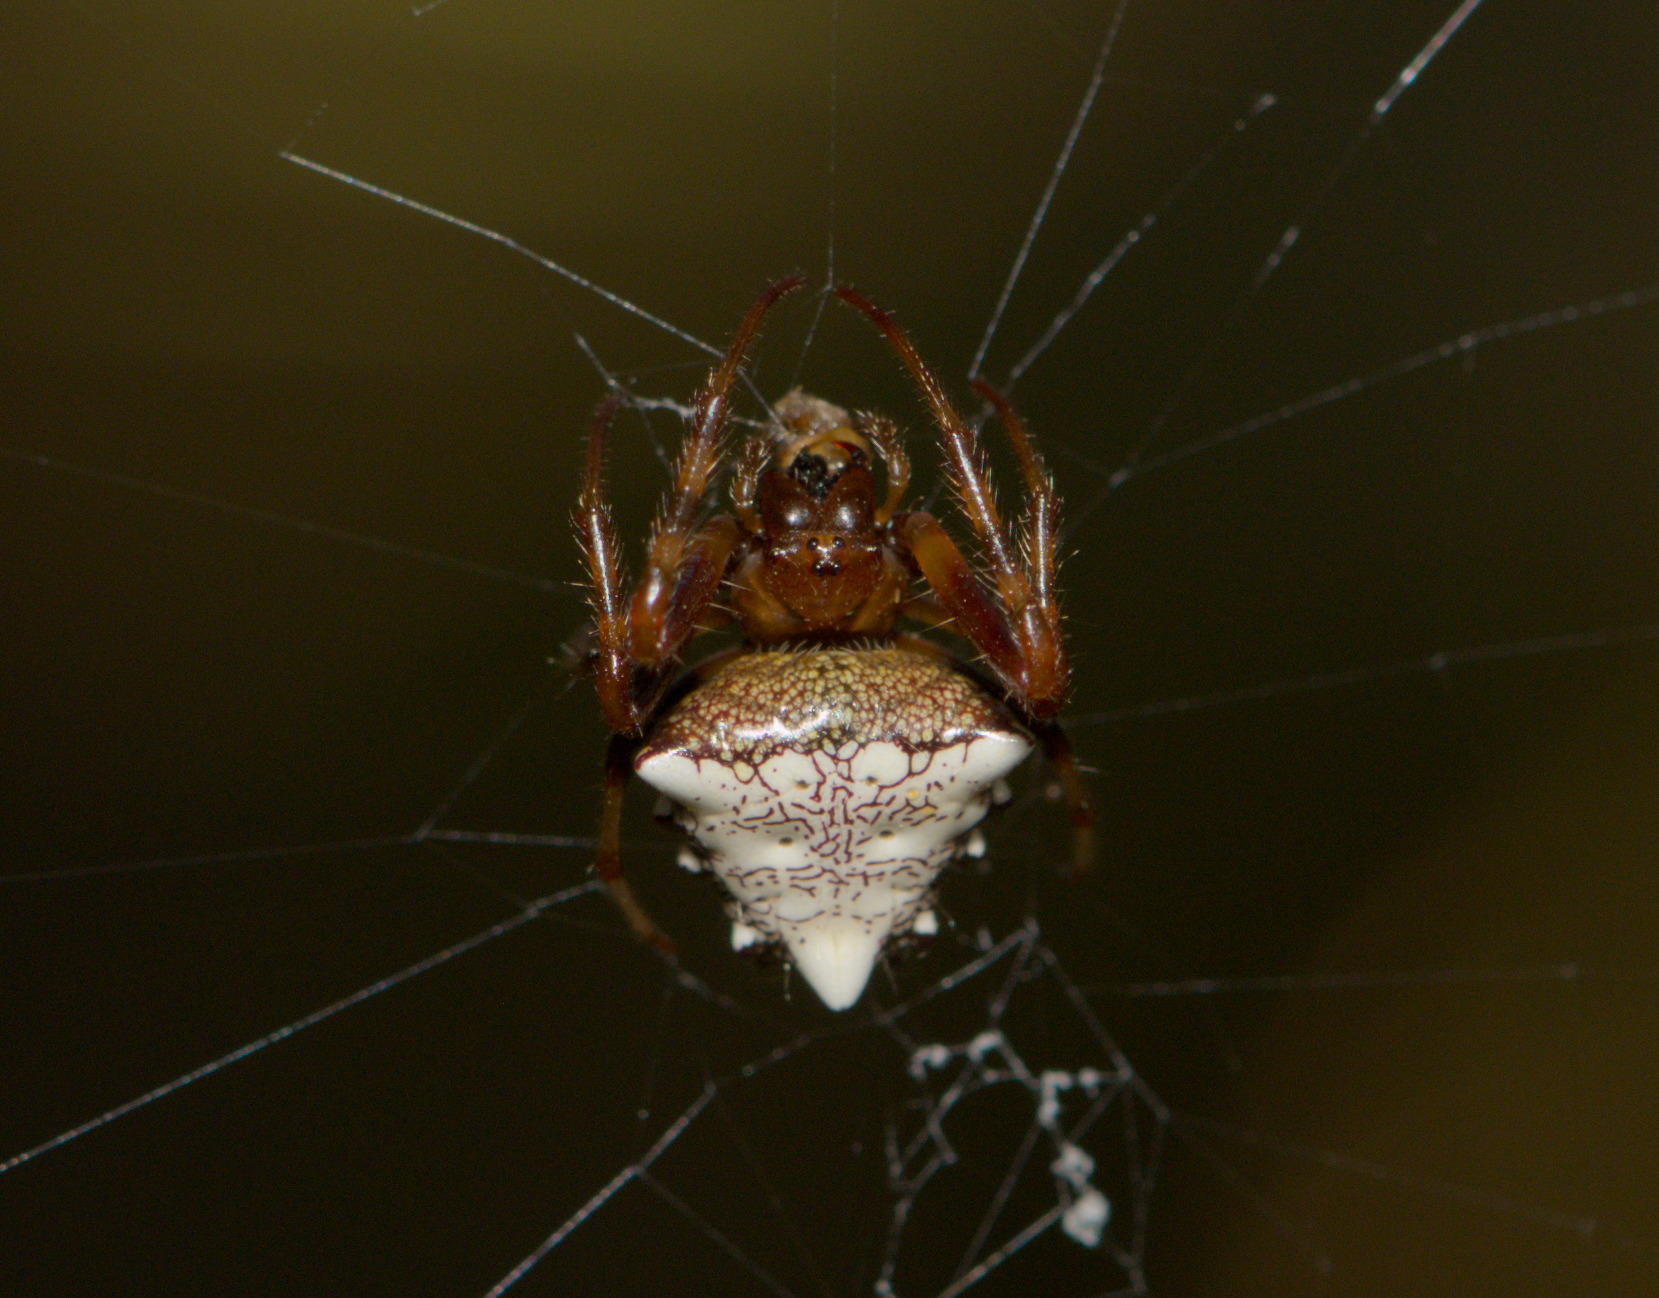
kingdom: Animalia
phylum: Arthropoda
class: Arachnida
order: Araneae
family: Araneidae
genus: Verrucosa
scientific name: Verrucosa arenata
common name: Orb weavers
